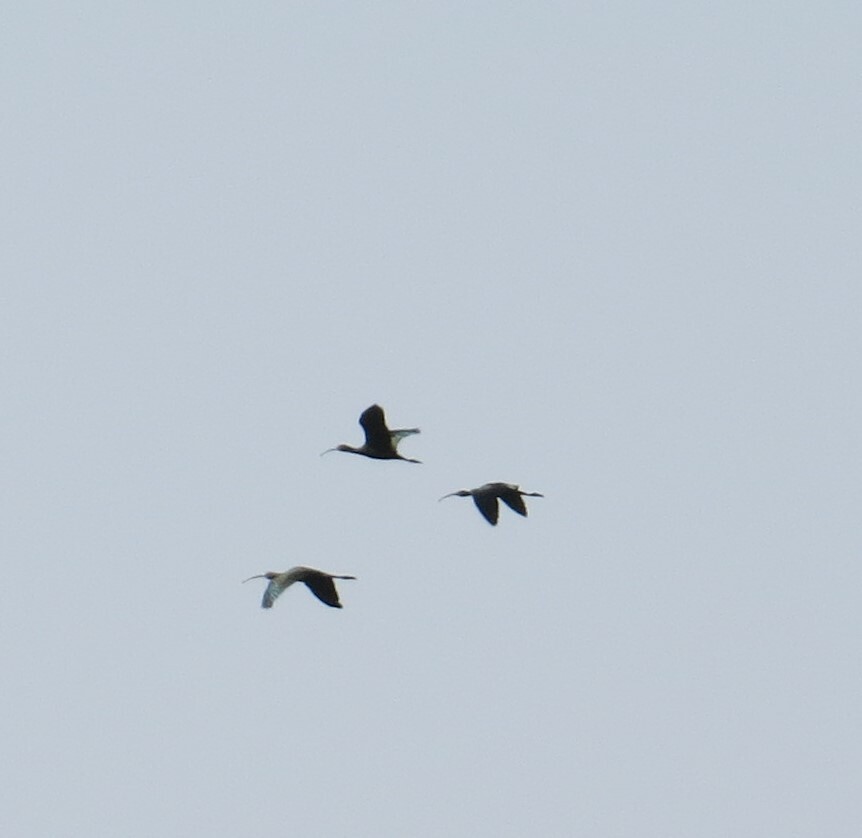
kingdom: Animalia
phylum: Chordata
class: Aves
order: Pelecaniformes
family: Threskiornithidae
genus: Plegadis
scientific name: Plegadis chihi
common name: White-faced ibis
